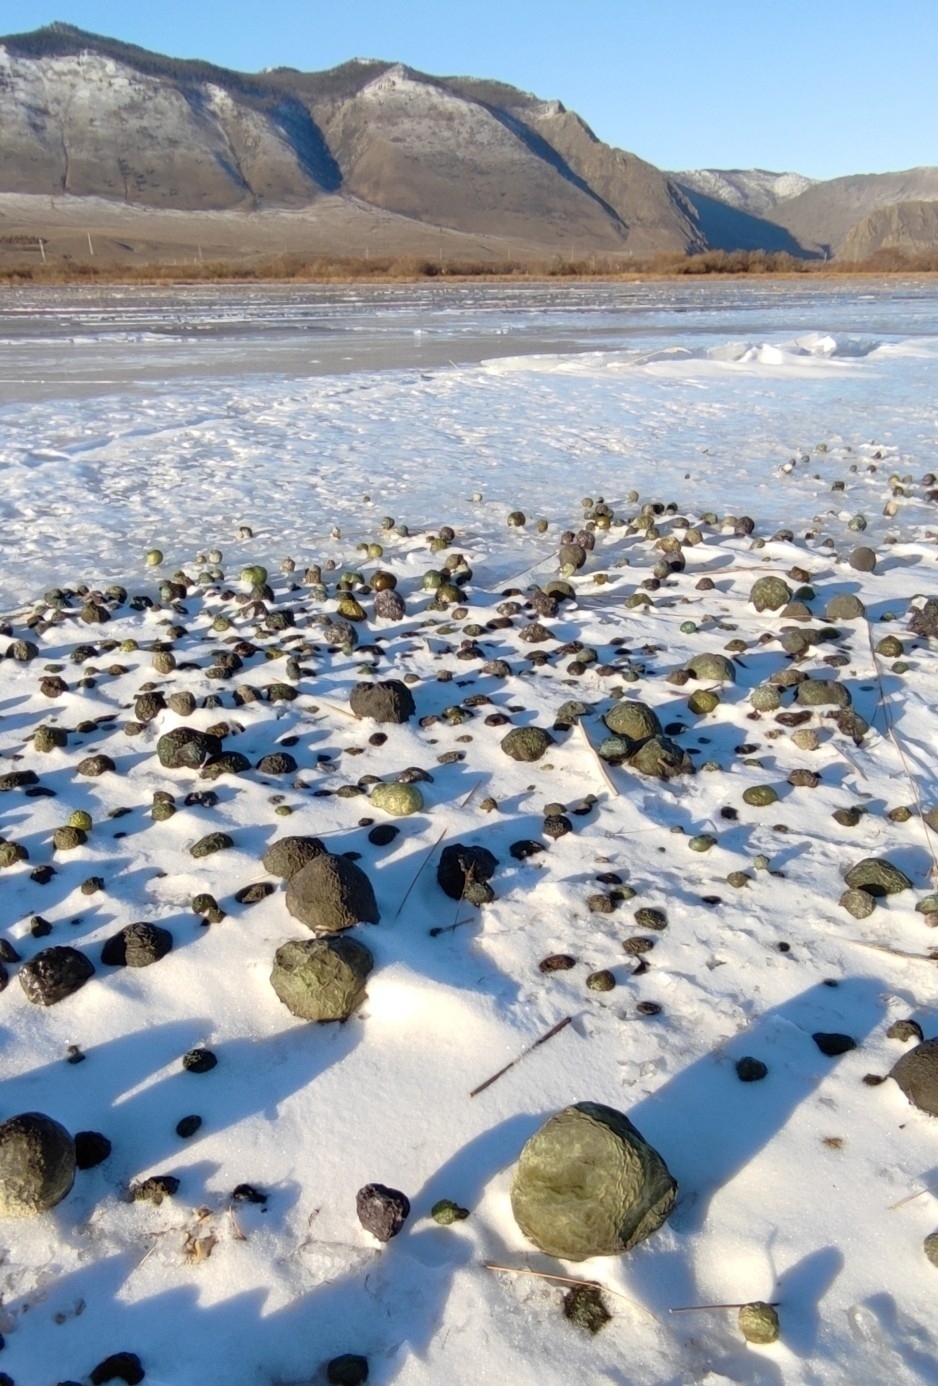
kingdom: Bacteria
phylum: Cyanobacteria
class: Cyanobacteriia
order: Cyanobacteriales
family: Nostocaceae
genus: Nostoc
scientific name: Nostoc pruniforme
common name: Mare's eggs
